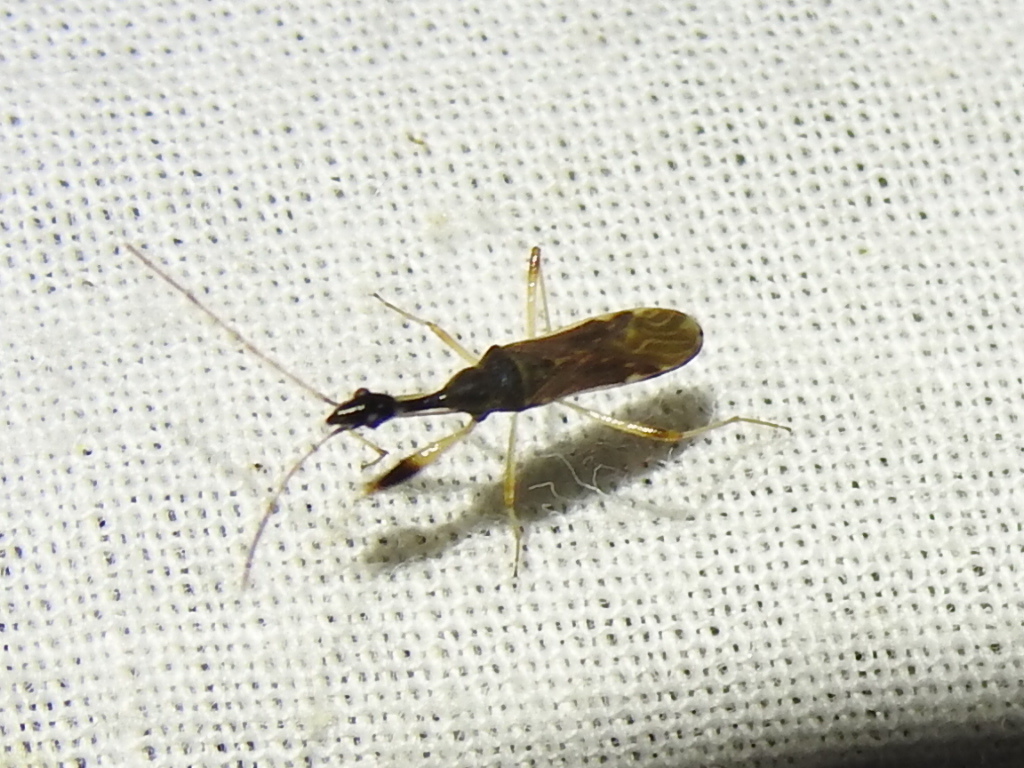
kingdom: Animalia
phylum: Arthropoda
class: Insecta
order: Hemiptera
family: Rhyparochromidae
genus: Myodocha
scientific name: Myodocha serripes
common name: Long-necked seed bug
